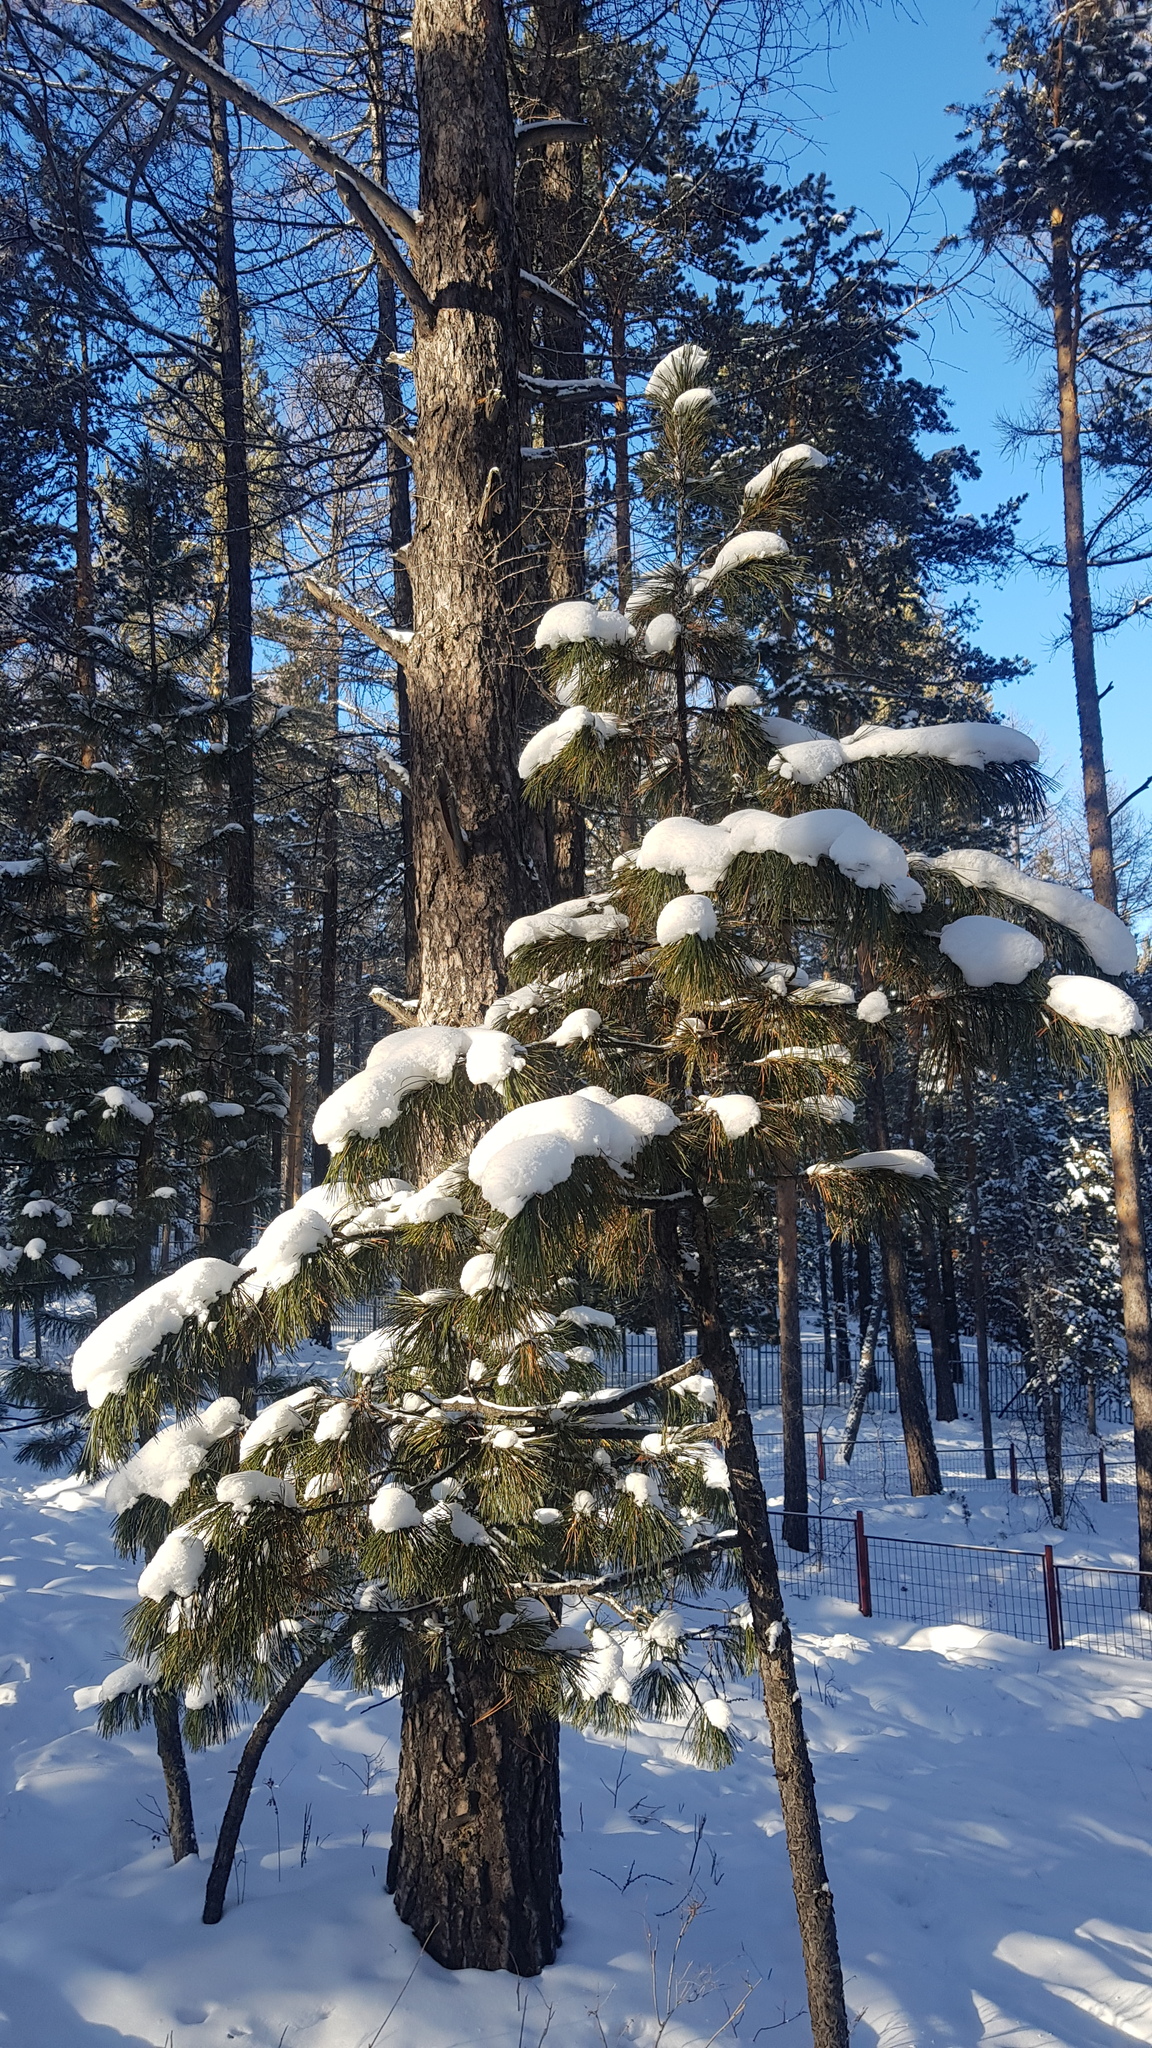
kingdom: Plantae
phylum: Tracheophyta
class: Pinopsida
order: Pinales
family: Pinaceae
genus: Pinus
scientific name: Pinus sibirica
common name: Siberian pine
